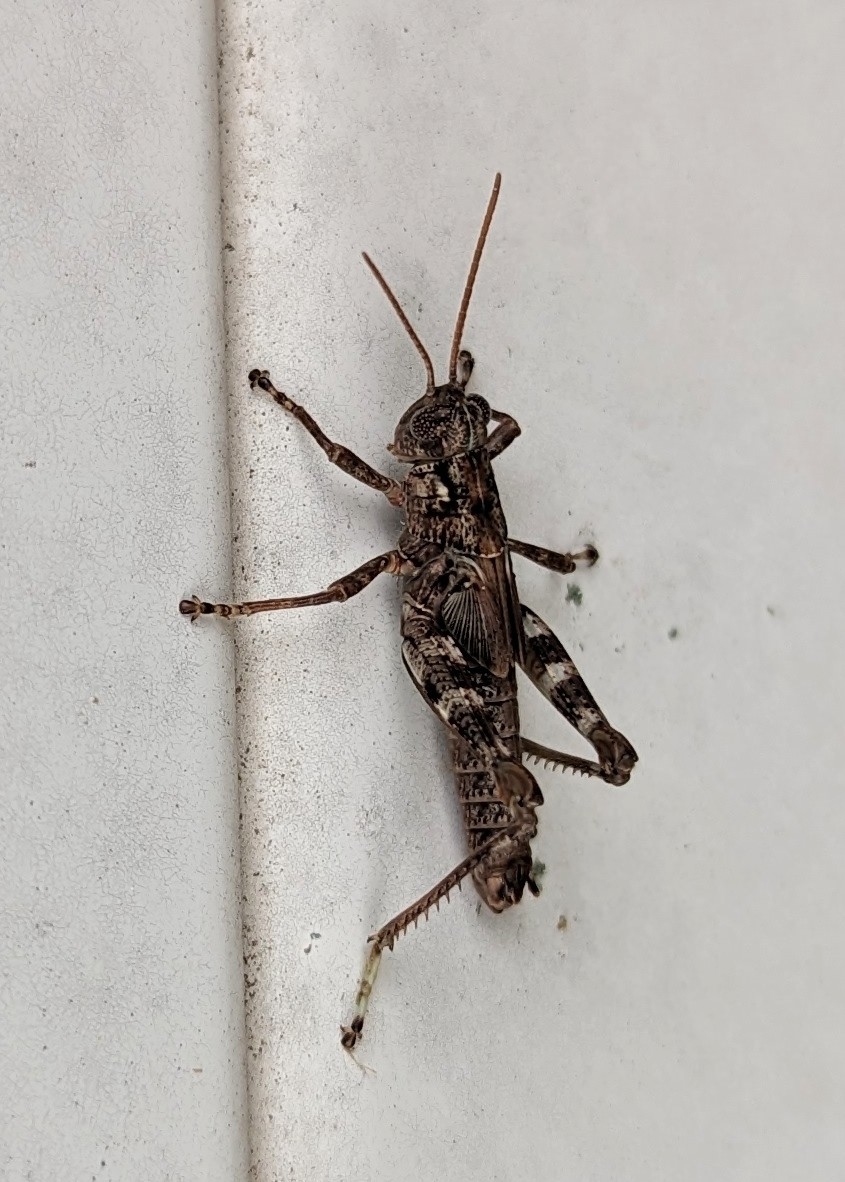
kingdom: Animalia
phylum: Arthropoda
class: Insecta
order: Orthoptera
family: Acrididae
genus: Melanoplus
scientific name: Melanoplus punctulatus
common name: Pine-tree spur-throat grasshopper
